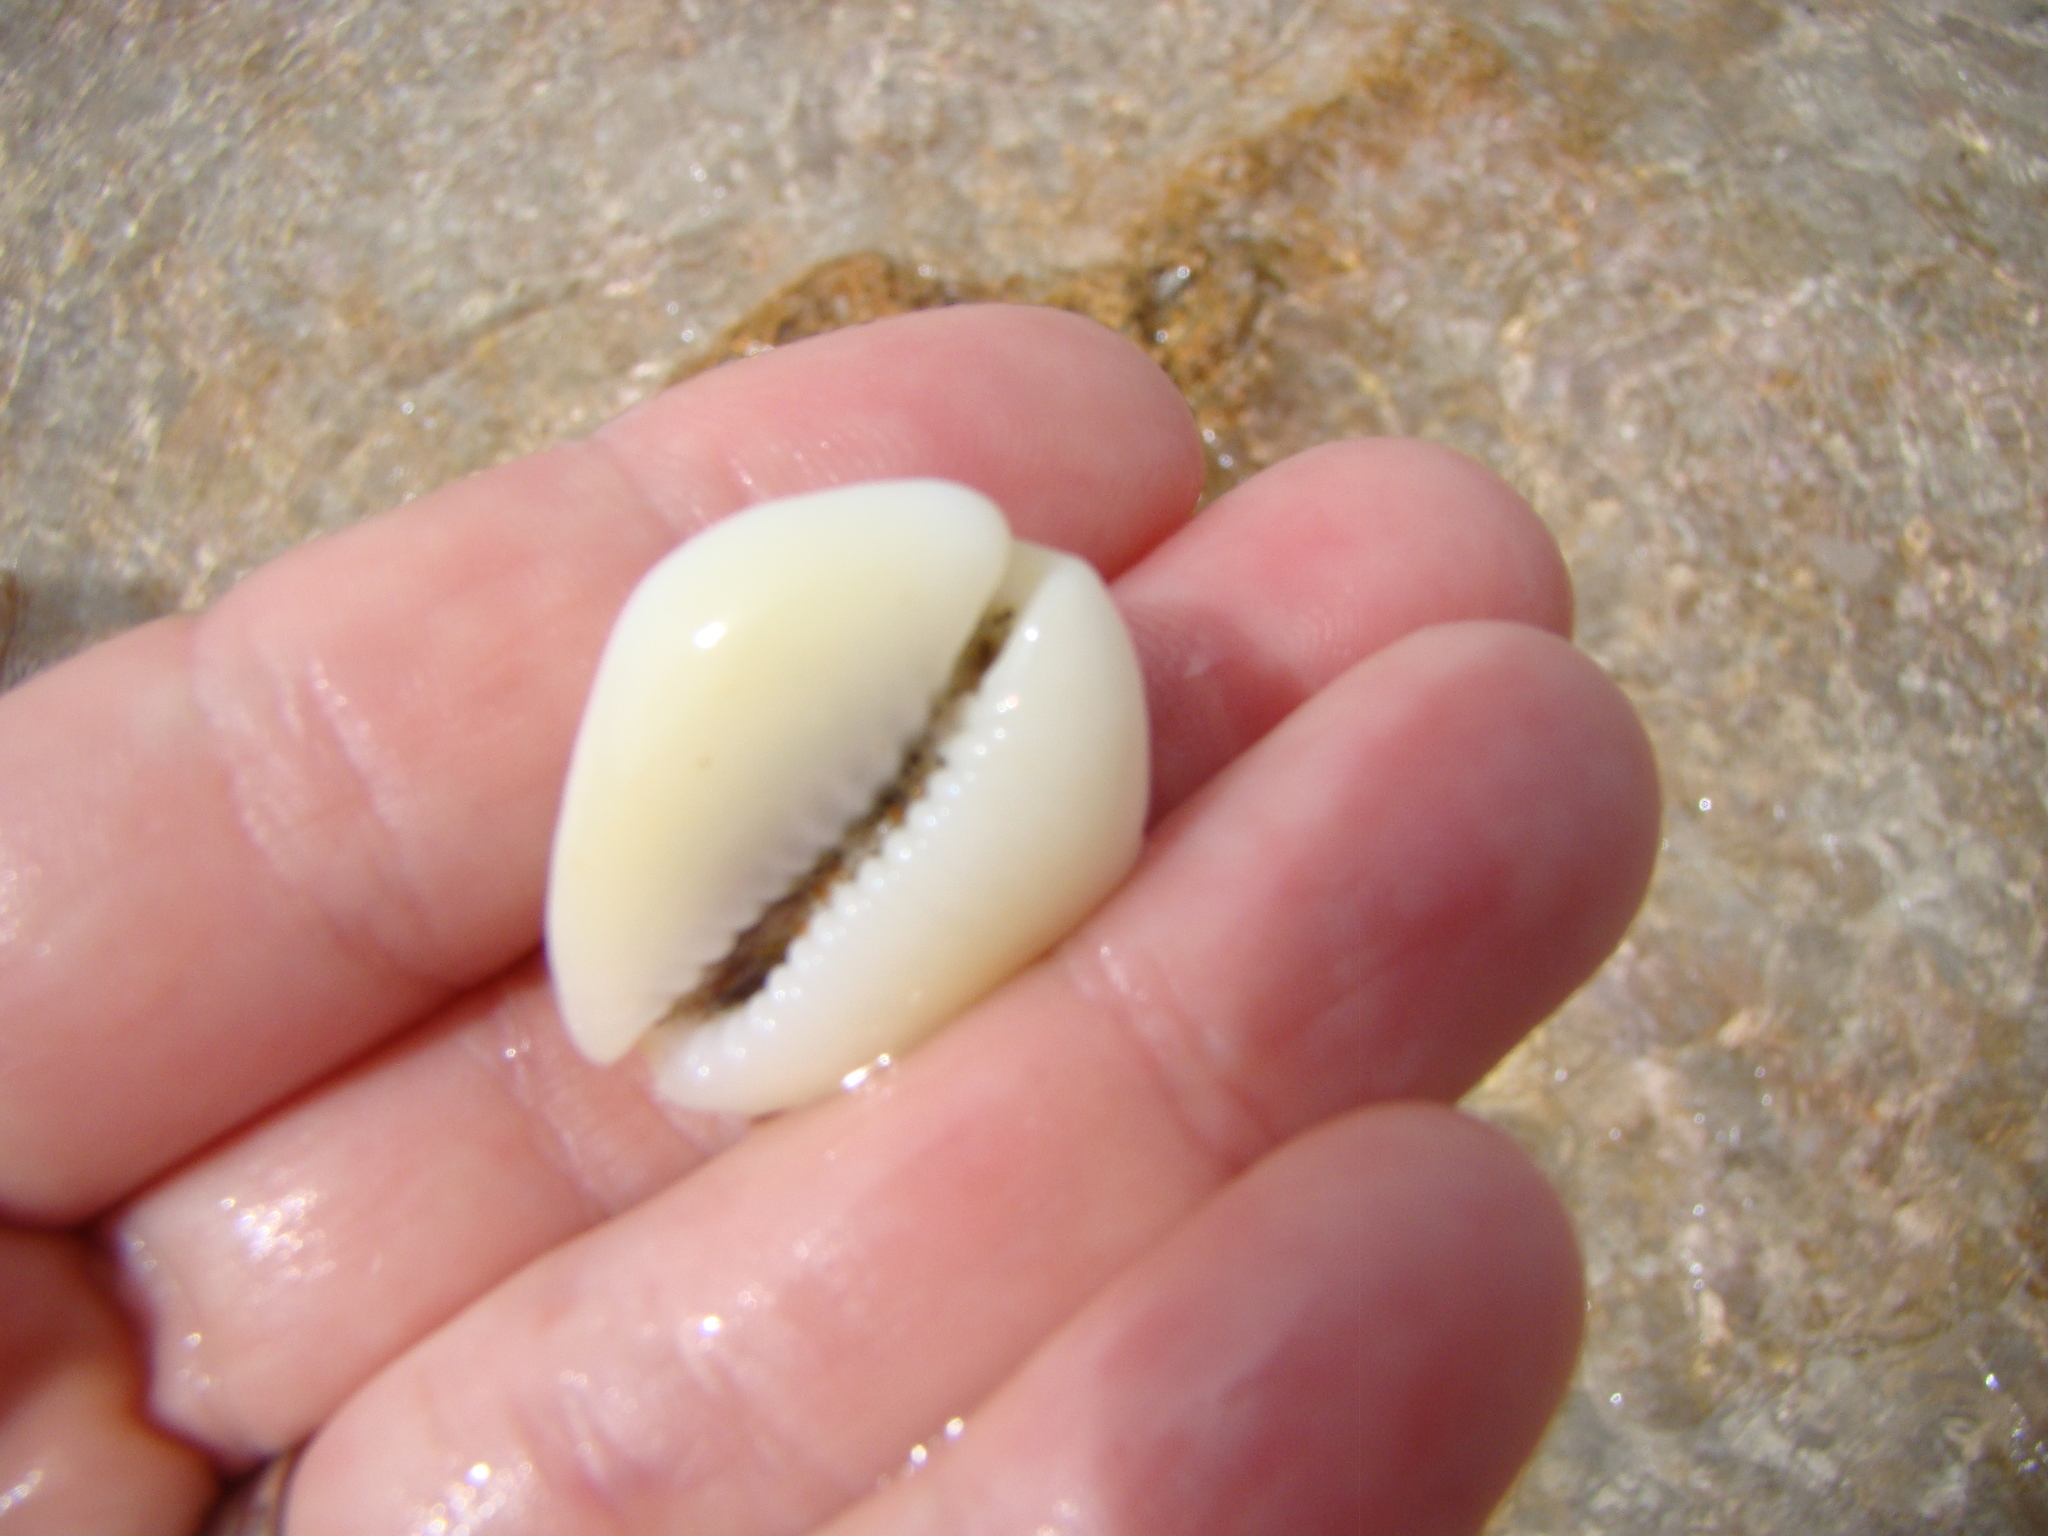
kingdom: Animalia
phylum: Mollusca
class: Gastropoda
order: Littorinimorpha
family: Cypraeidae
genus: Monetaria
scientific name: Monetaria moneta
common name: Money cowrie
